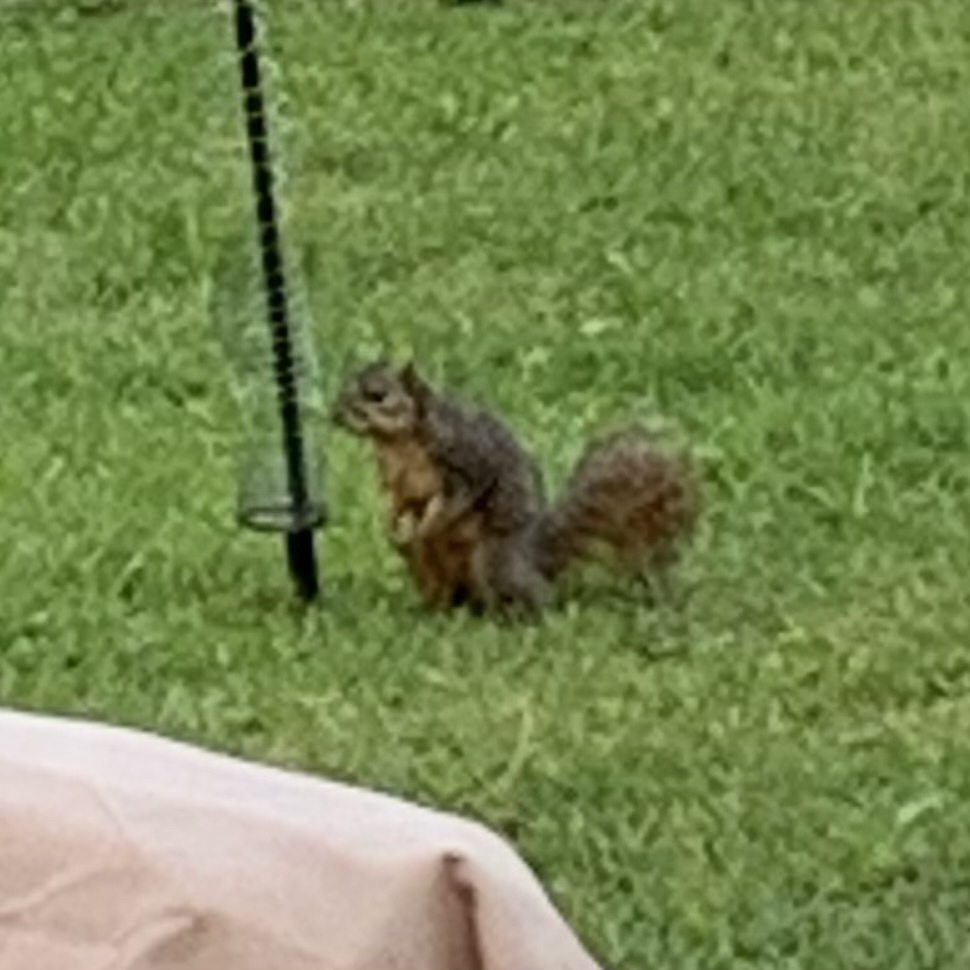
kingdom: Animalia
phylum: Chordata
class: Mammalia
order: Rodentia
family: Sciuridae
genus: Sciurus
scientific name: Sciurus niger
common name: Fox squirrel
